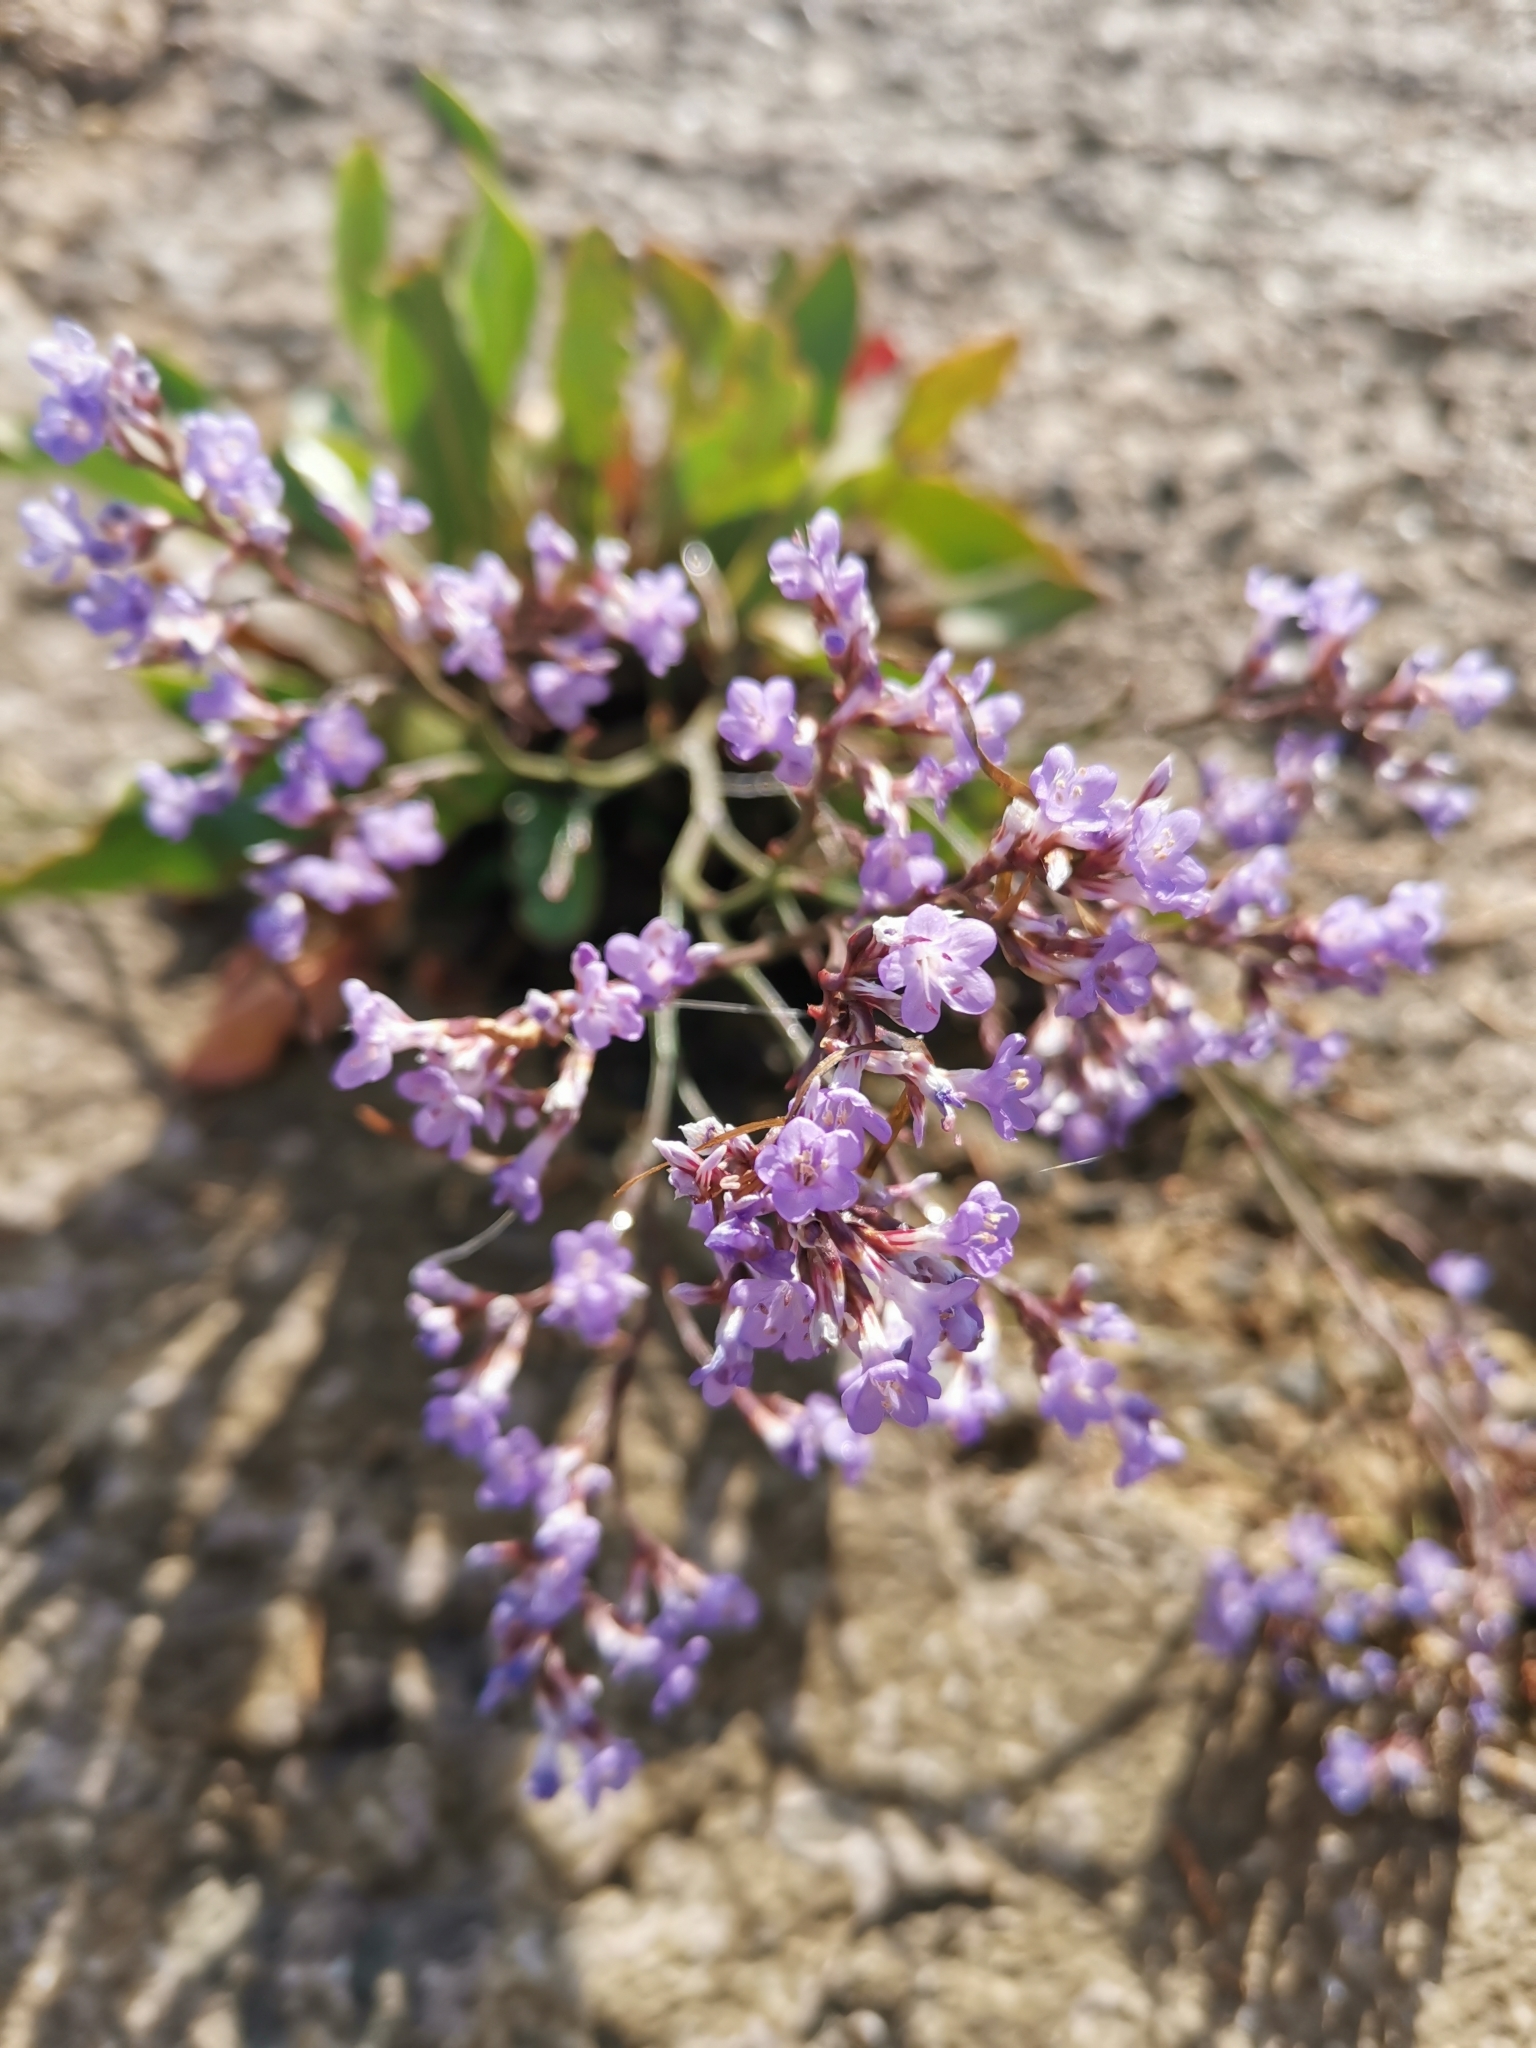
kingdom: Plantae
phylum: Tracheophyta
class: Magnoliopsida
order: Caryophyllales
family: Plumbaginaceae
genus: Limonium
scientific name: Limonium vulgare
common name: Common sea-lavender
